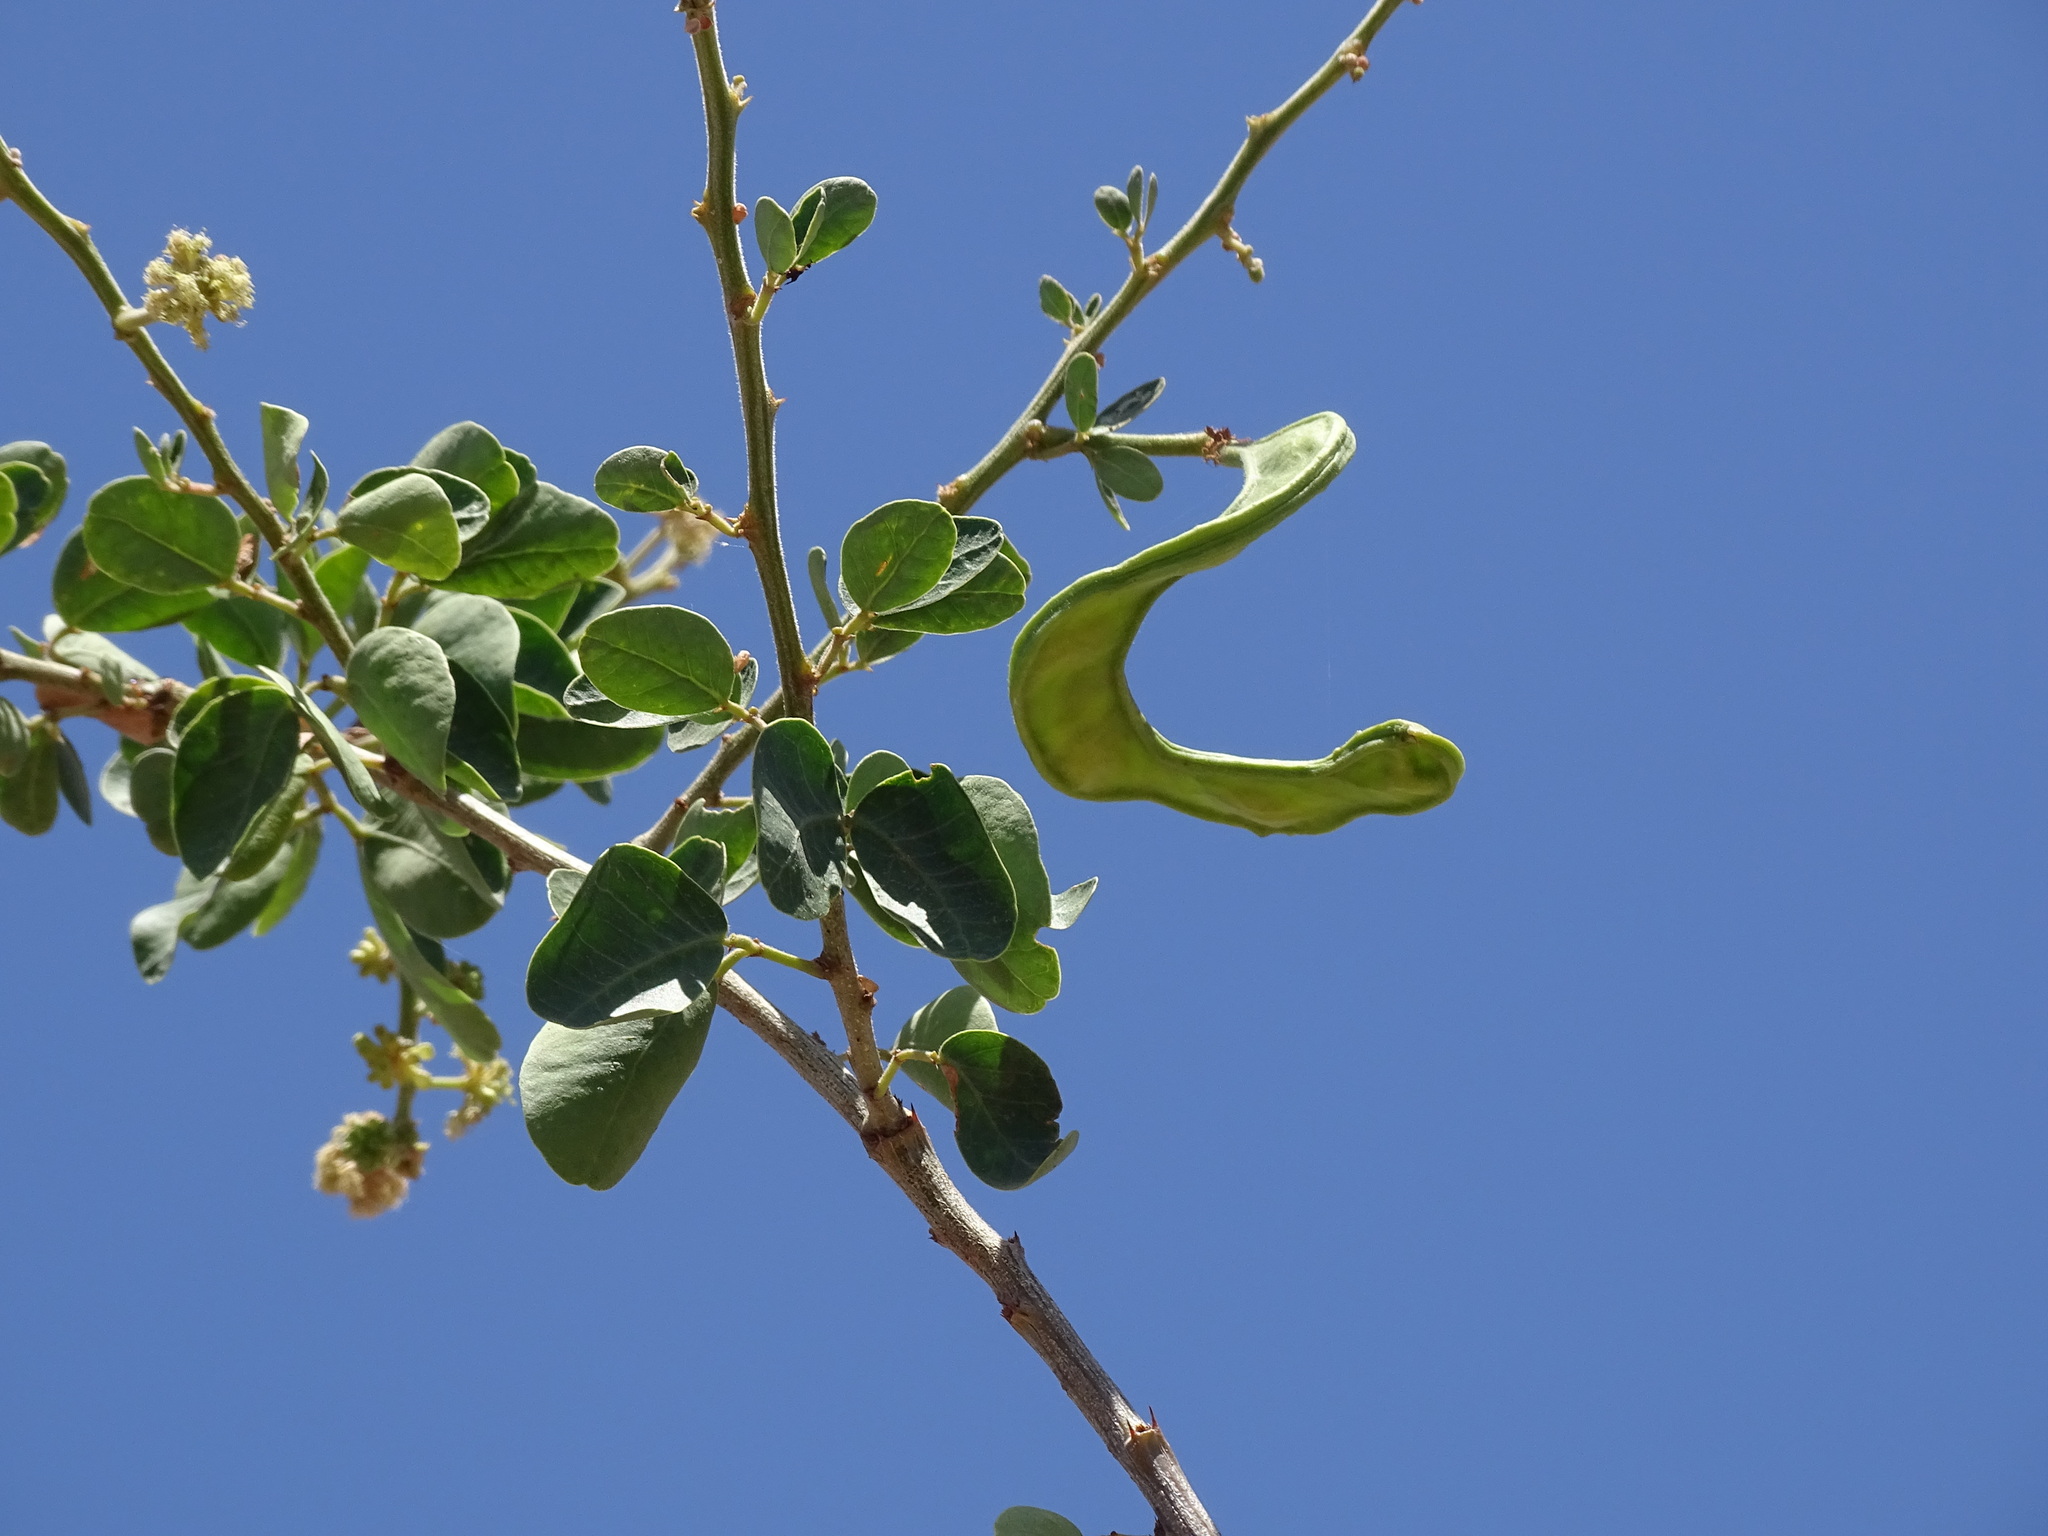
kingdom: Plantae
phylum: Tracheophyta
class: Magnoliopsida
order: Fabales
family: Fabaceae
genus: Pithecellobium
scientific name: Pithecellobium dulce
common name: Monkeypod
